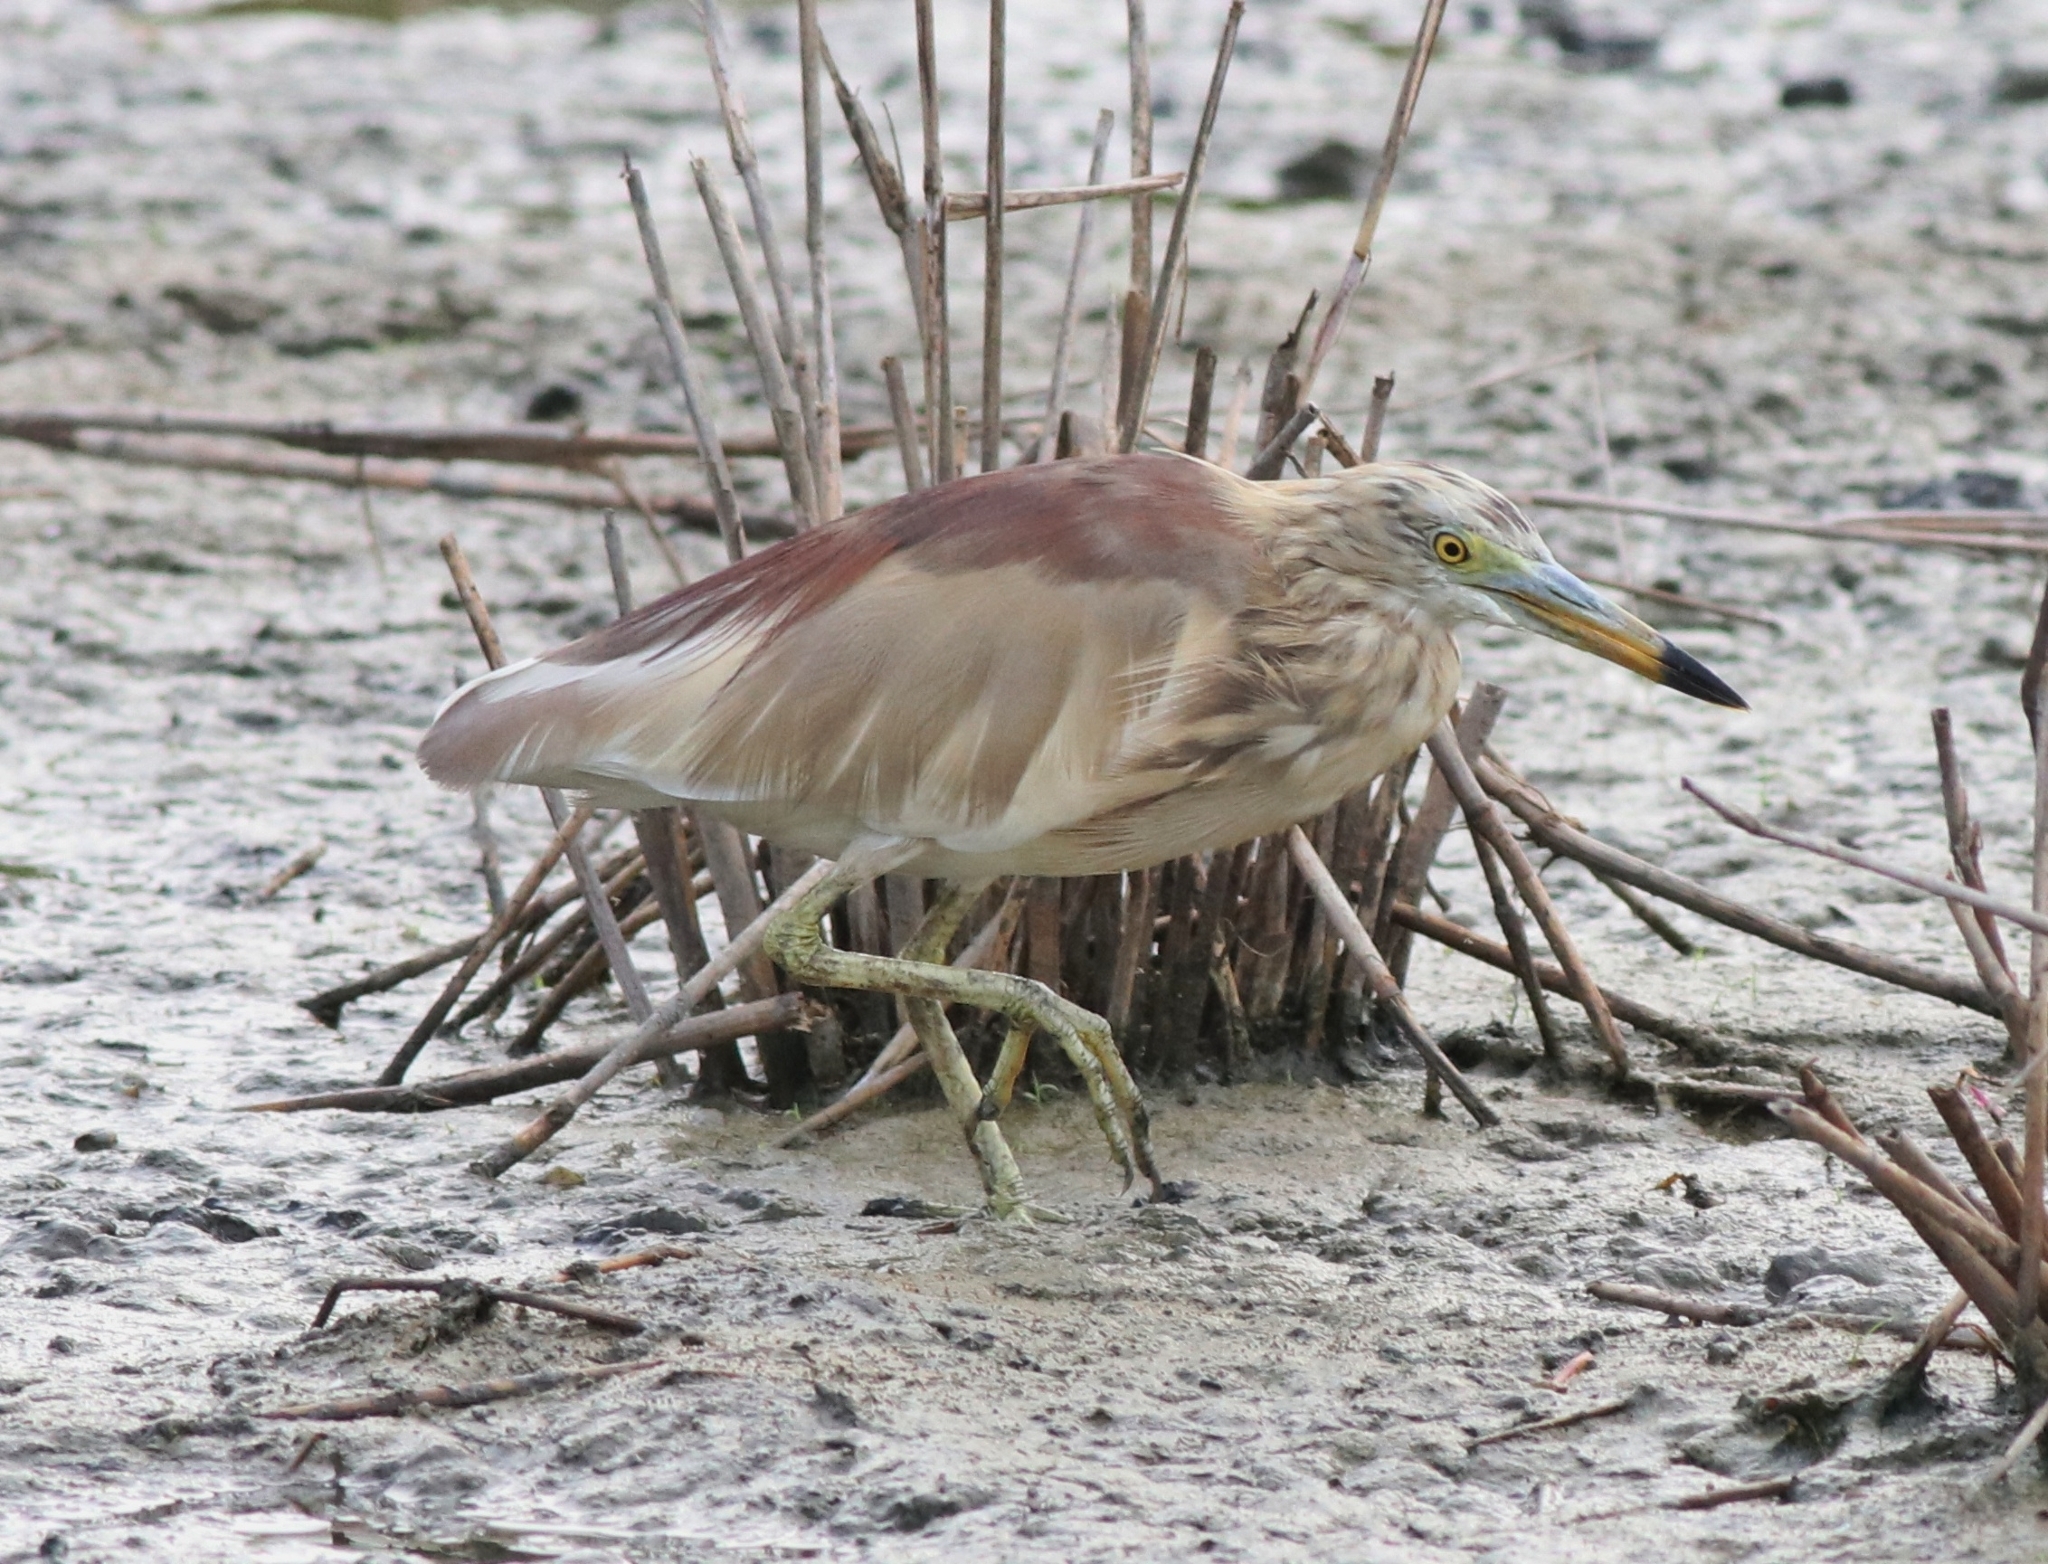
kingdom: Animalia
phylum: Chordata
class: Aves
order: Pelecaniformes
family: Ardeidae
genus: Ardeola
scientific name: Ardeola grayii
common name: Indian pond heron
